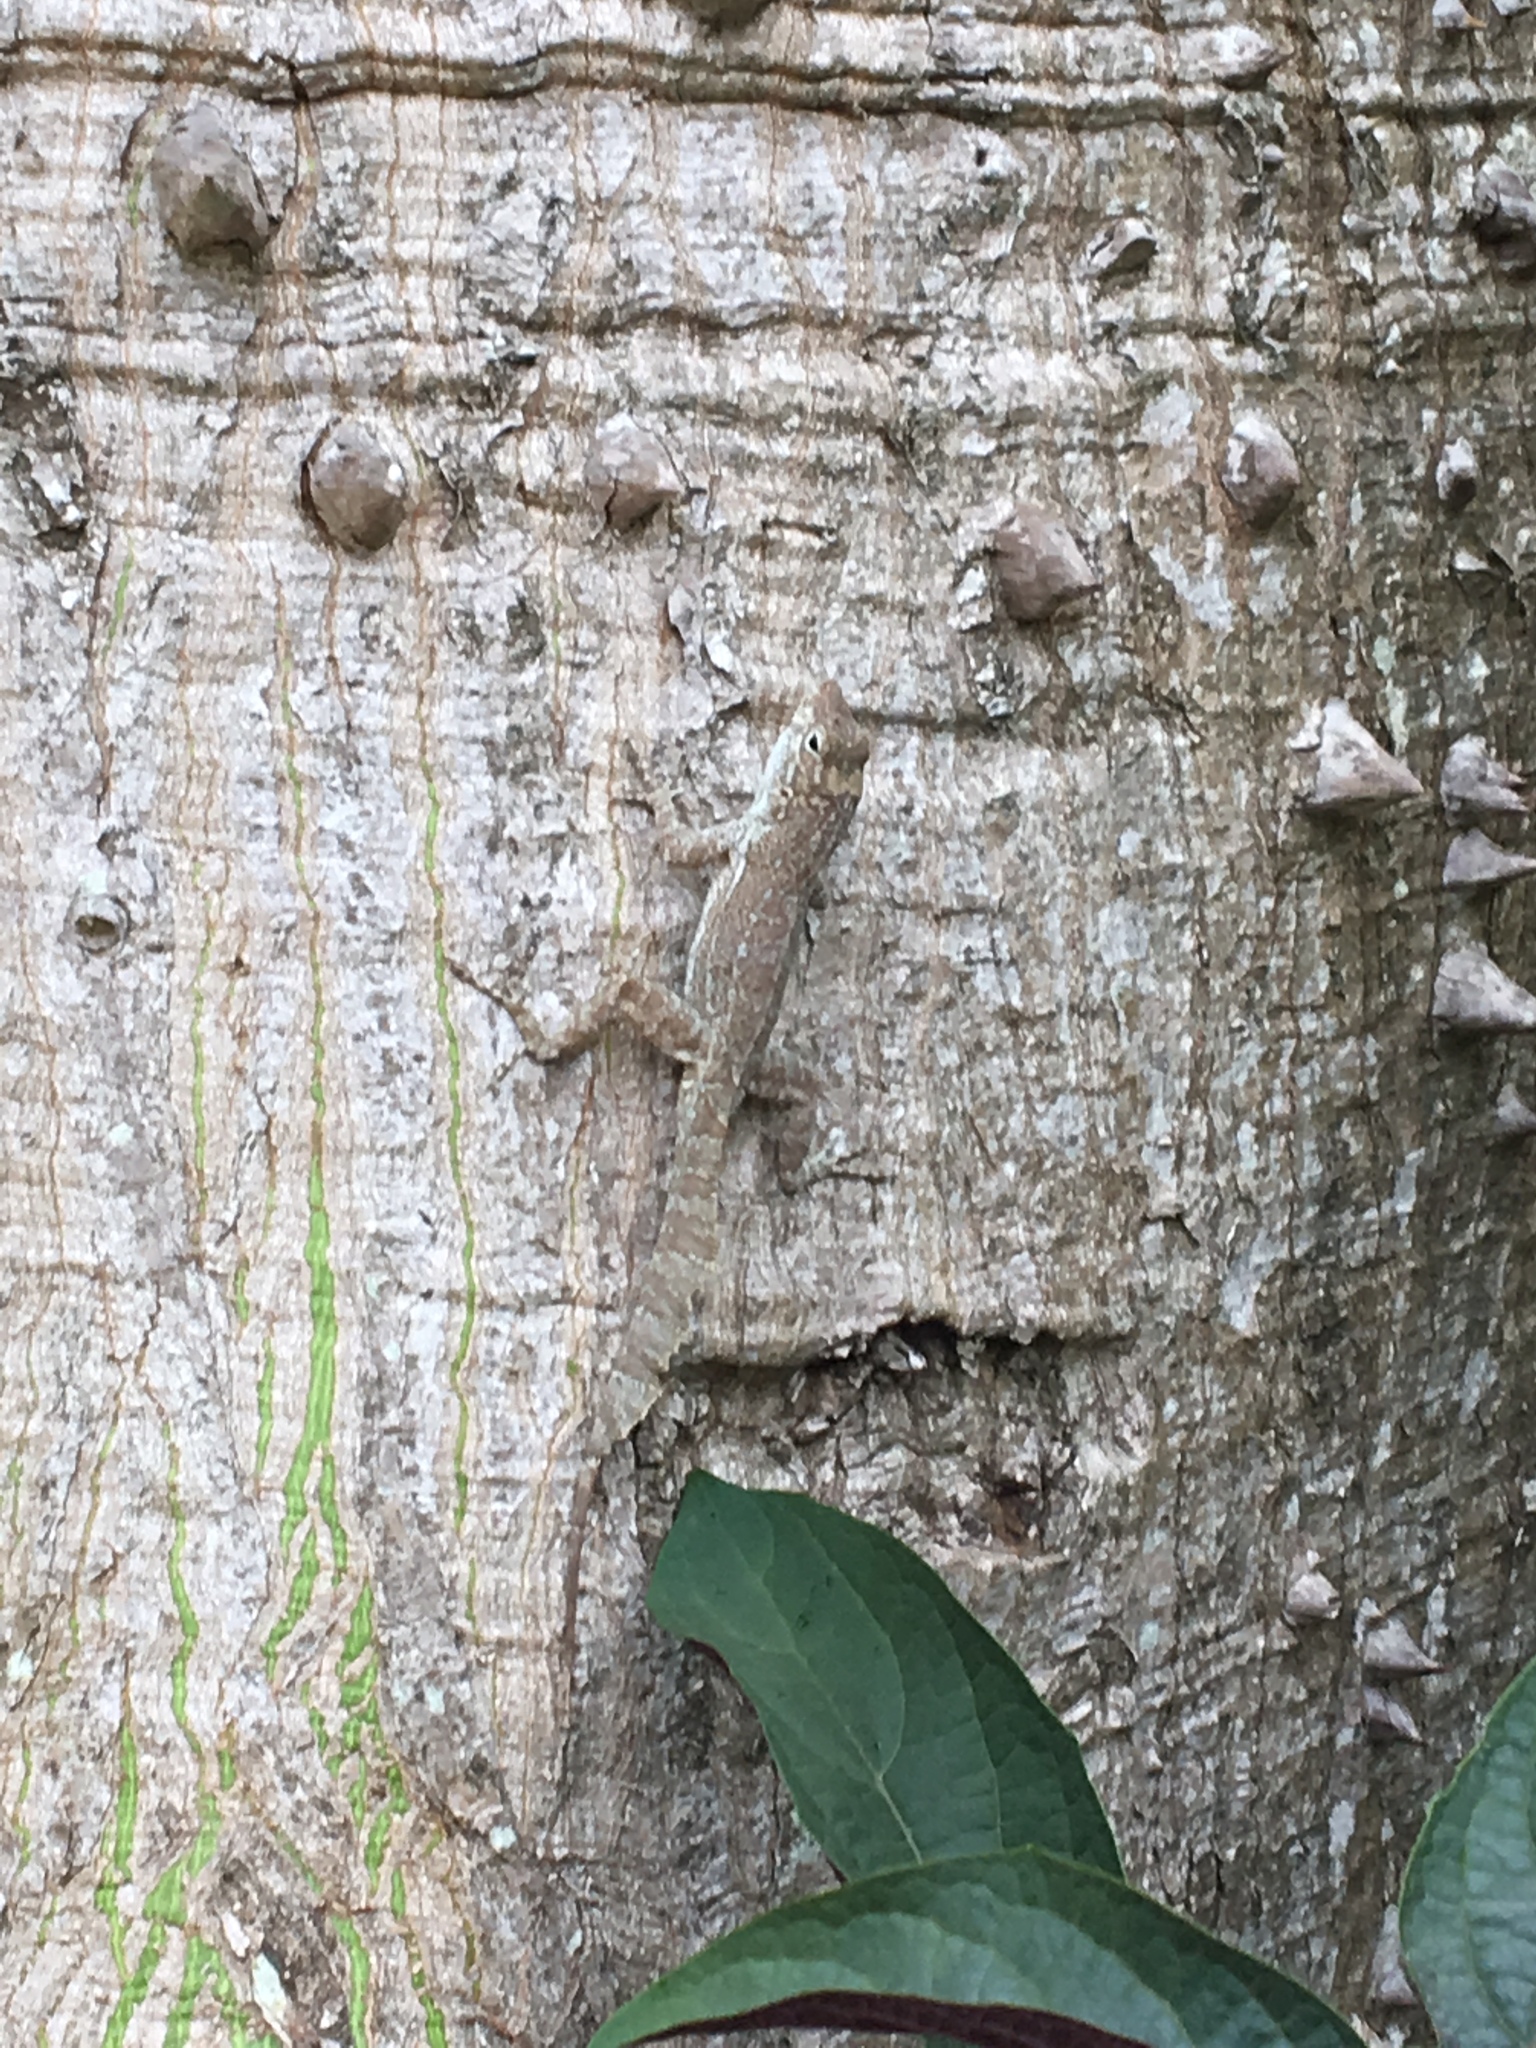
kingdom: Animalia
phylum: Chordata
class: Squamata
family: Dactyloidae
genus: Anolis
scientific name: Anolis cristatellus
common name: Crested anole
